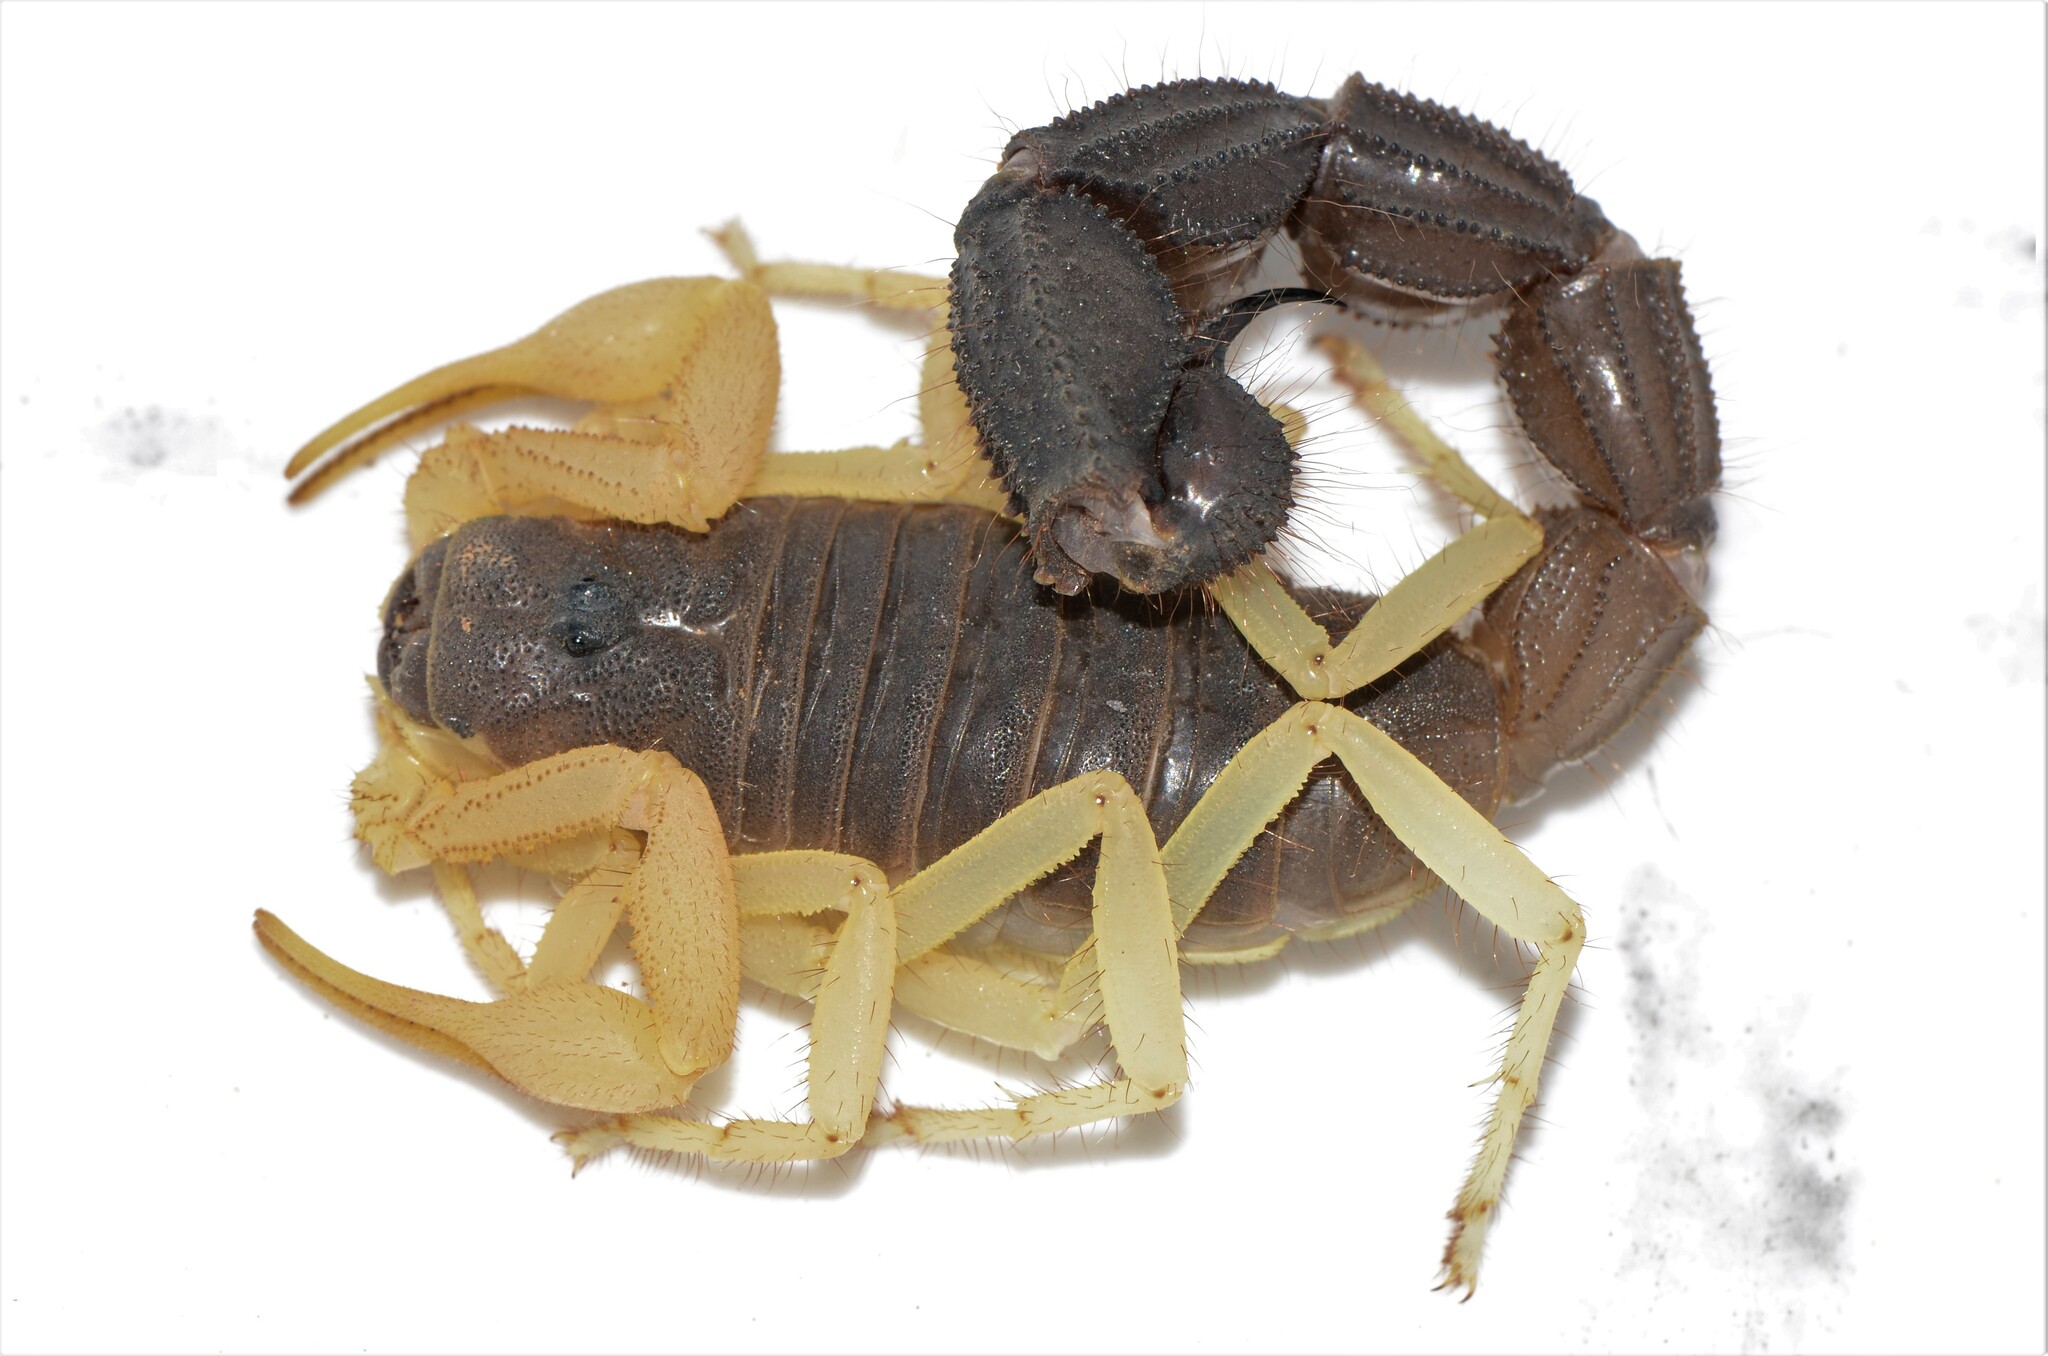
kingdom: Animalia
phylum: Arthropoda
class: Arachnida
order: Scorpiones
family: Buthidae
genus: Parabuthus
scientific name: Parabuthus schlechteri
